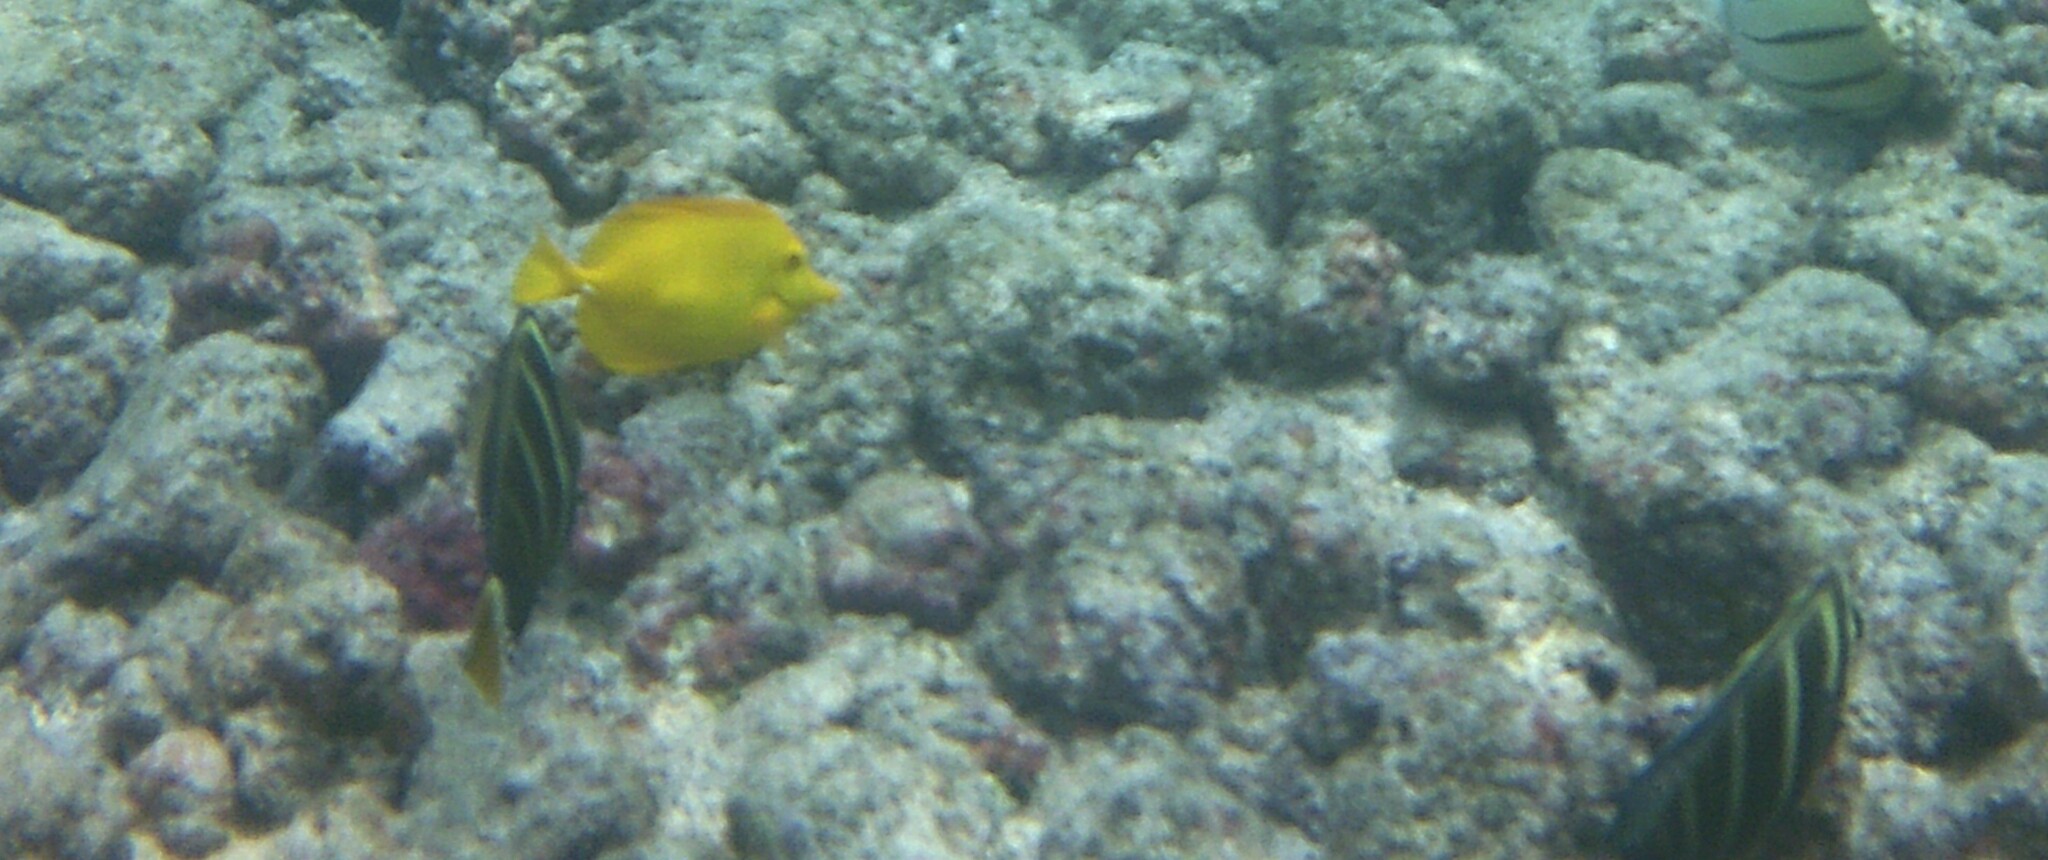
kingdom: Animalia
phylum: Chordata
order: Perciformes
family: Acanthuridae
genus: Zebrasoma
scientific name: Zebrasoma veliferum
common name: Sailfin surgeonfish
